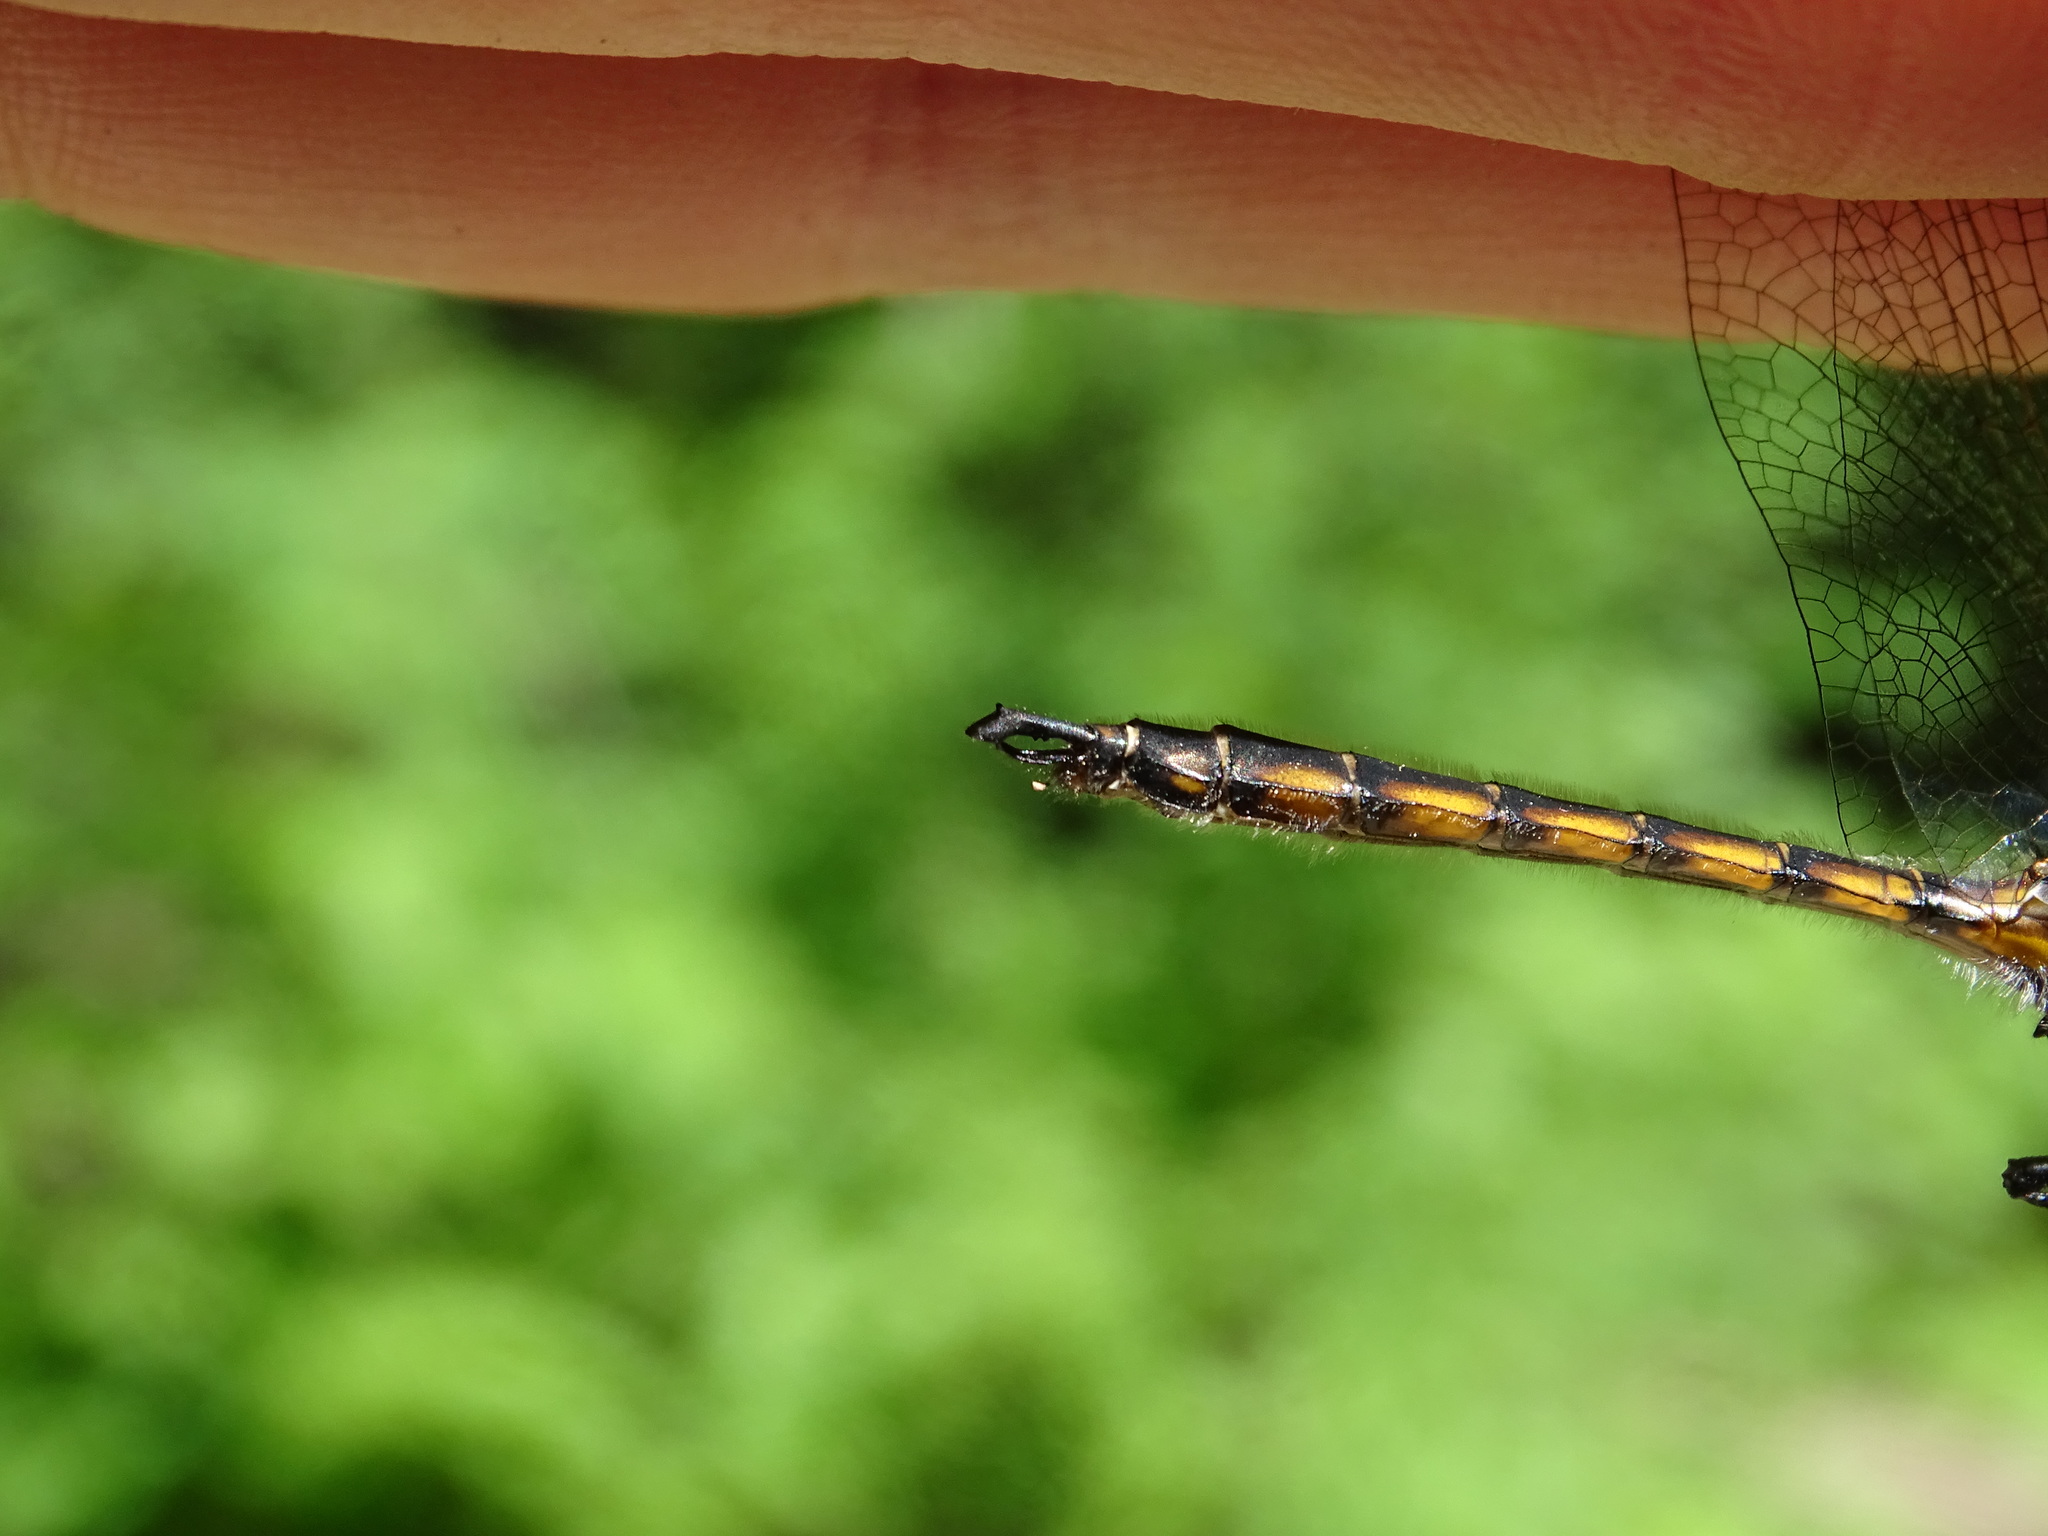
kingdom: Animalia
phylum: Arthropoda
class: Insecta
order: Odonata
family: Corduliidae
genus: Epitheca
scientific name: Epitheca canis
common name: Beaverpond baskettail
